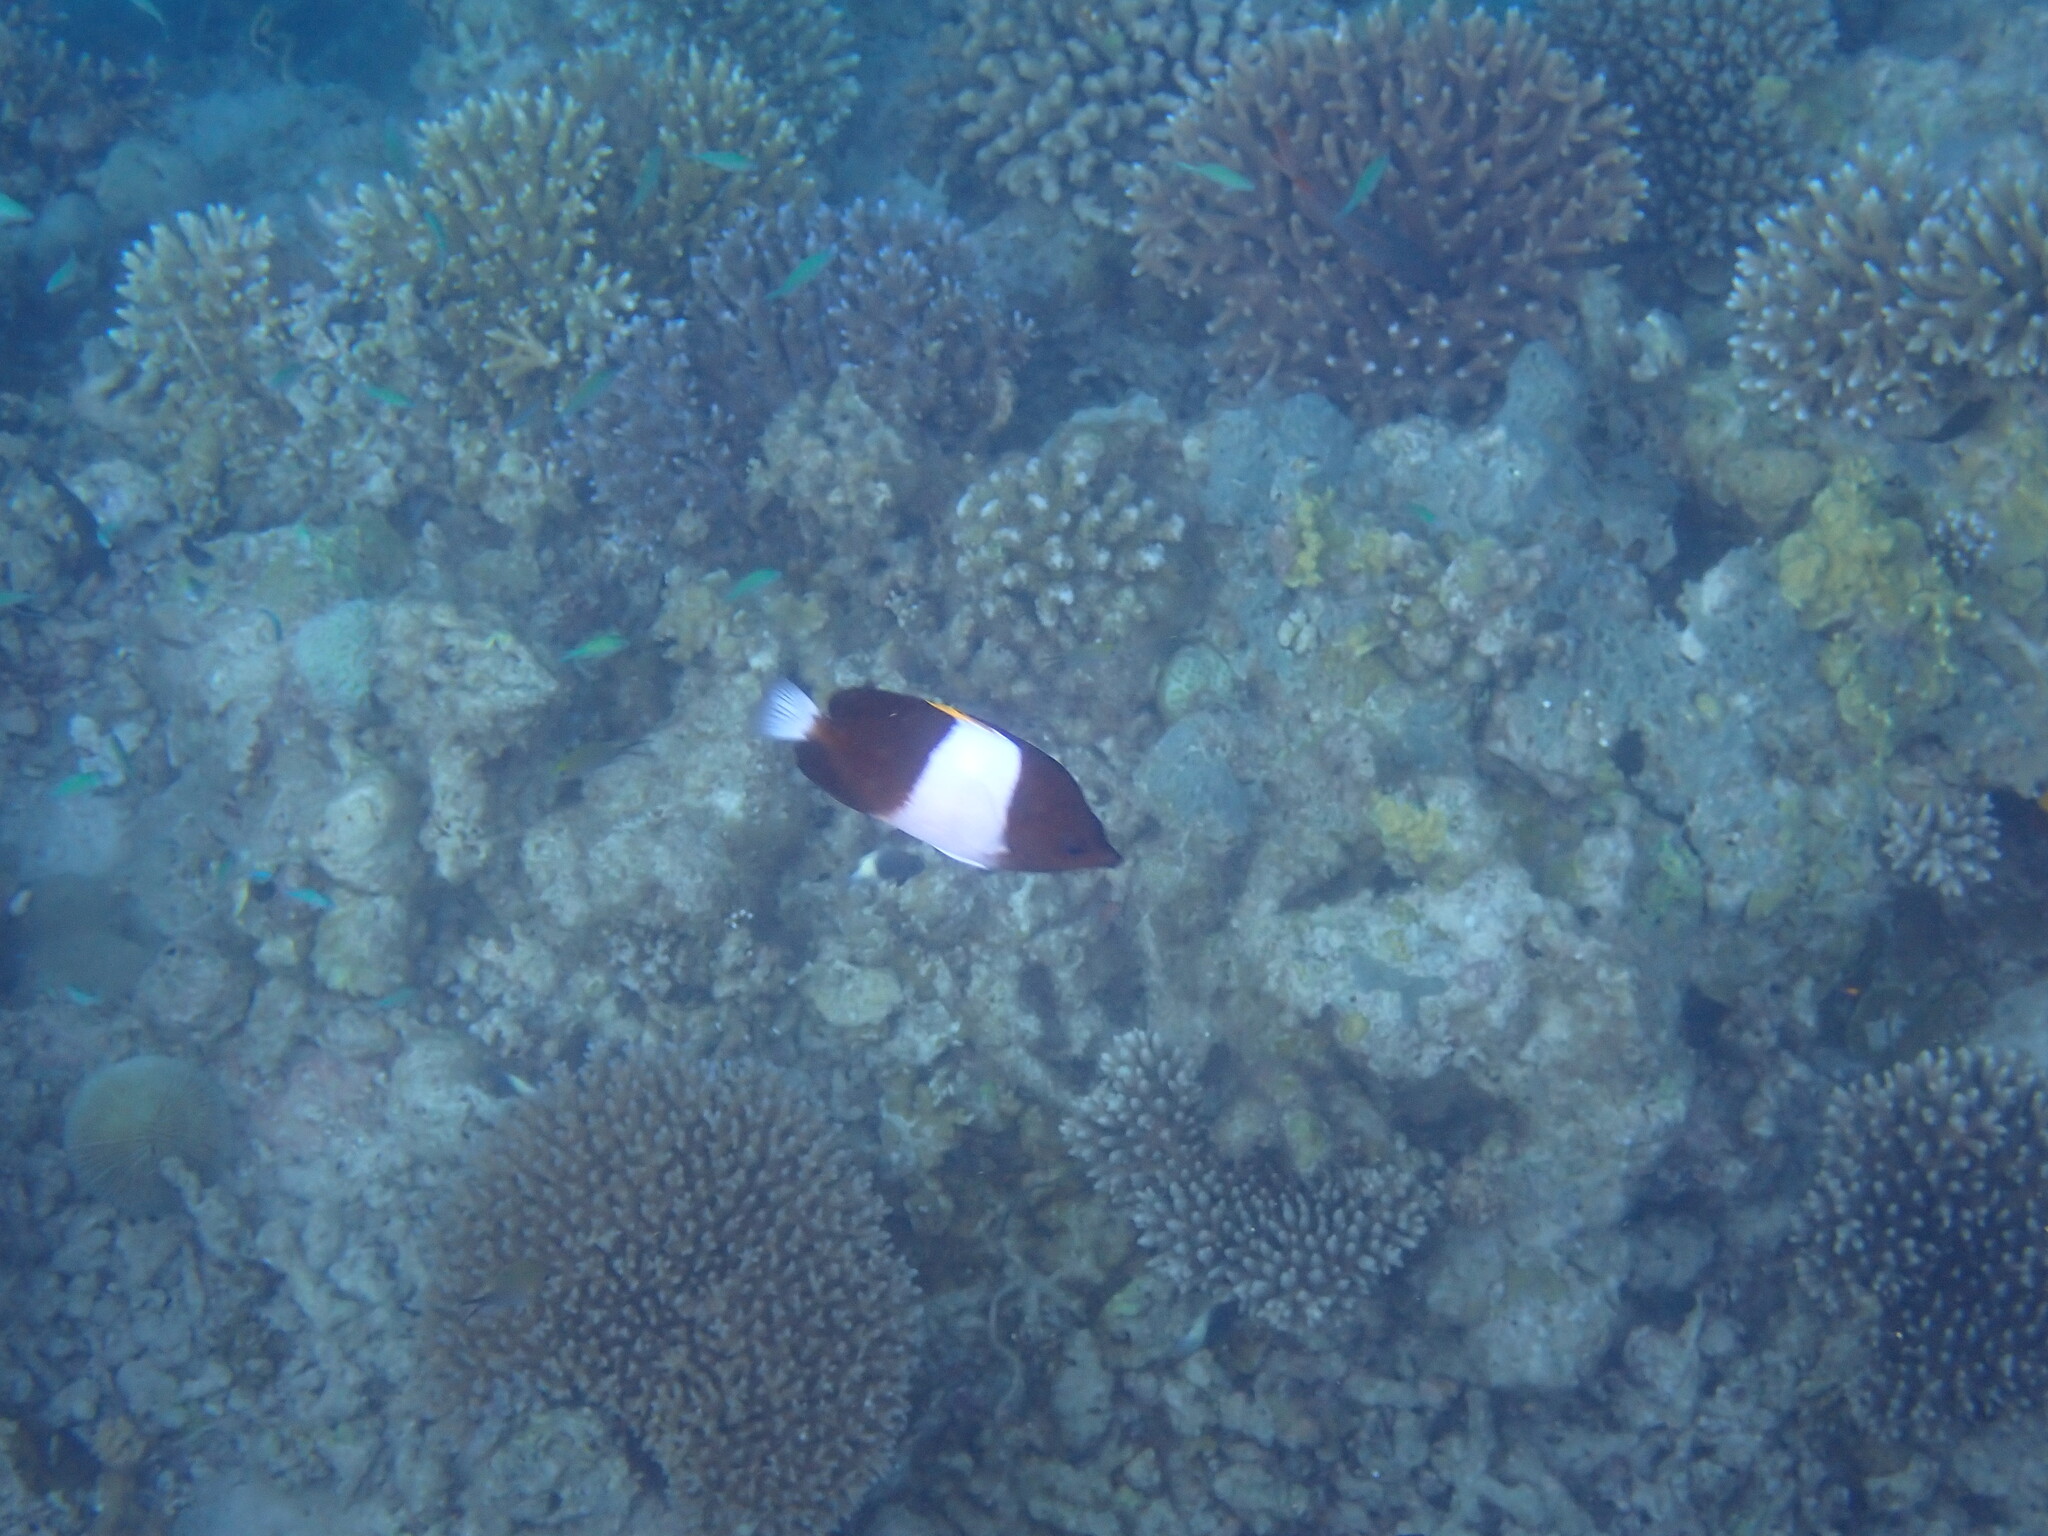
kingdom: Animalia
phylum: Chordata
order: Perciformes
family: Chaetodontidae
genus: Hemitaurichthys
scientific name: Hemitaurichthys zoster
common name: Brown-and-white butterflyfish
